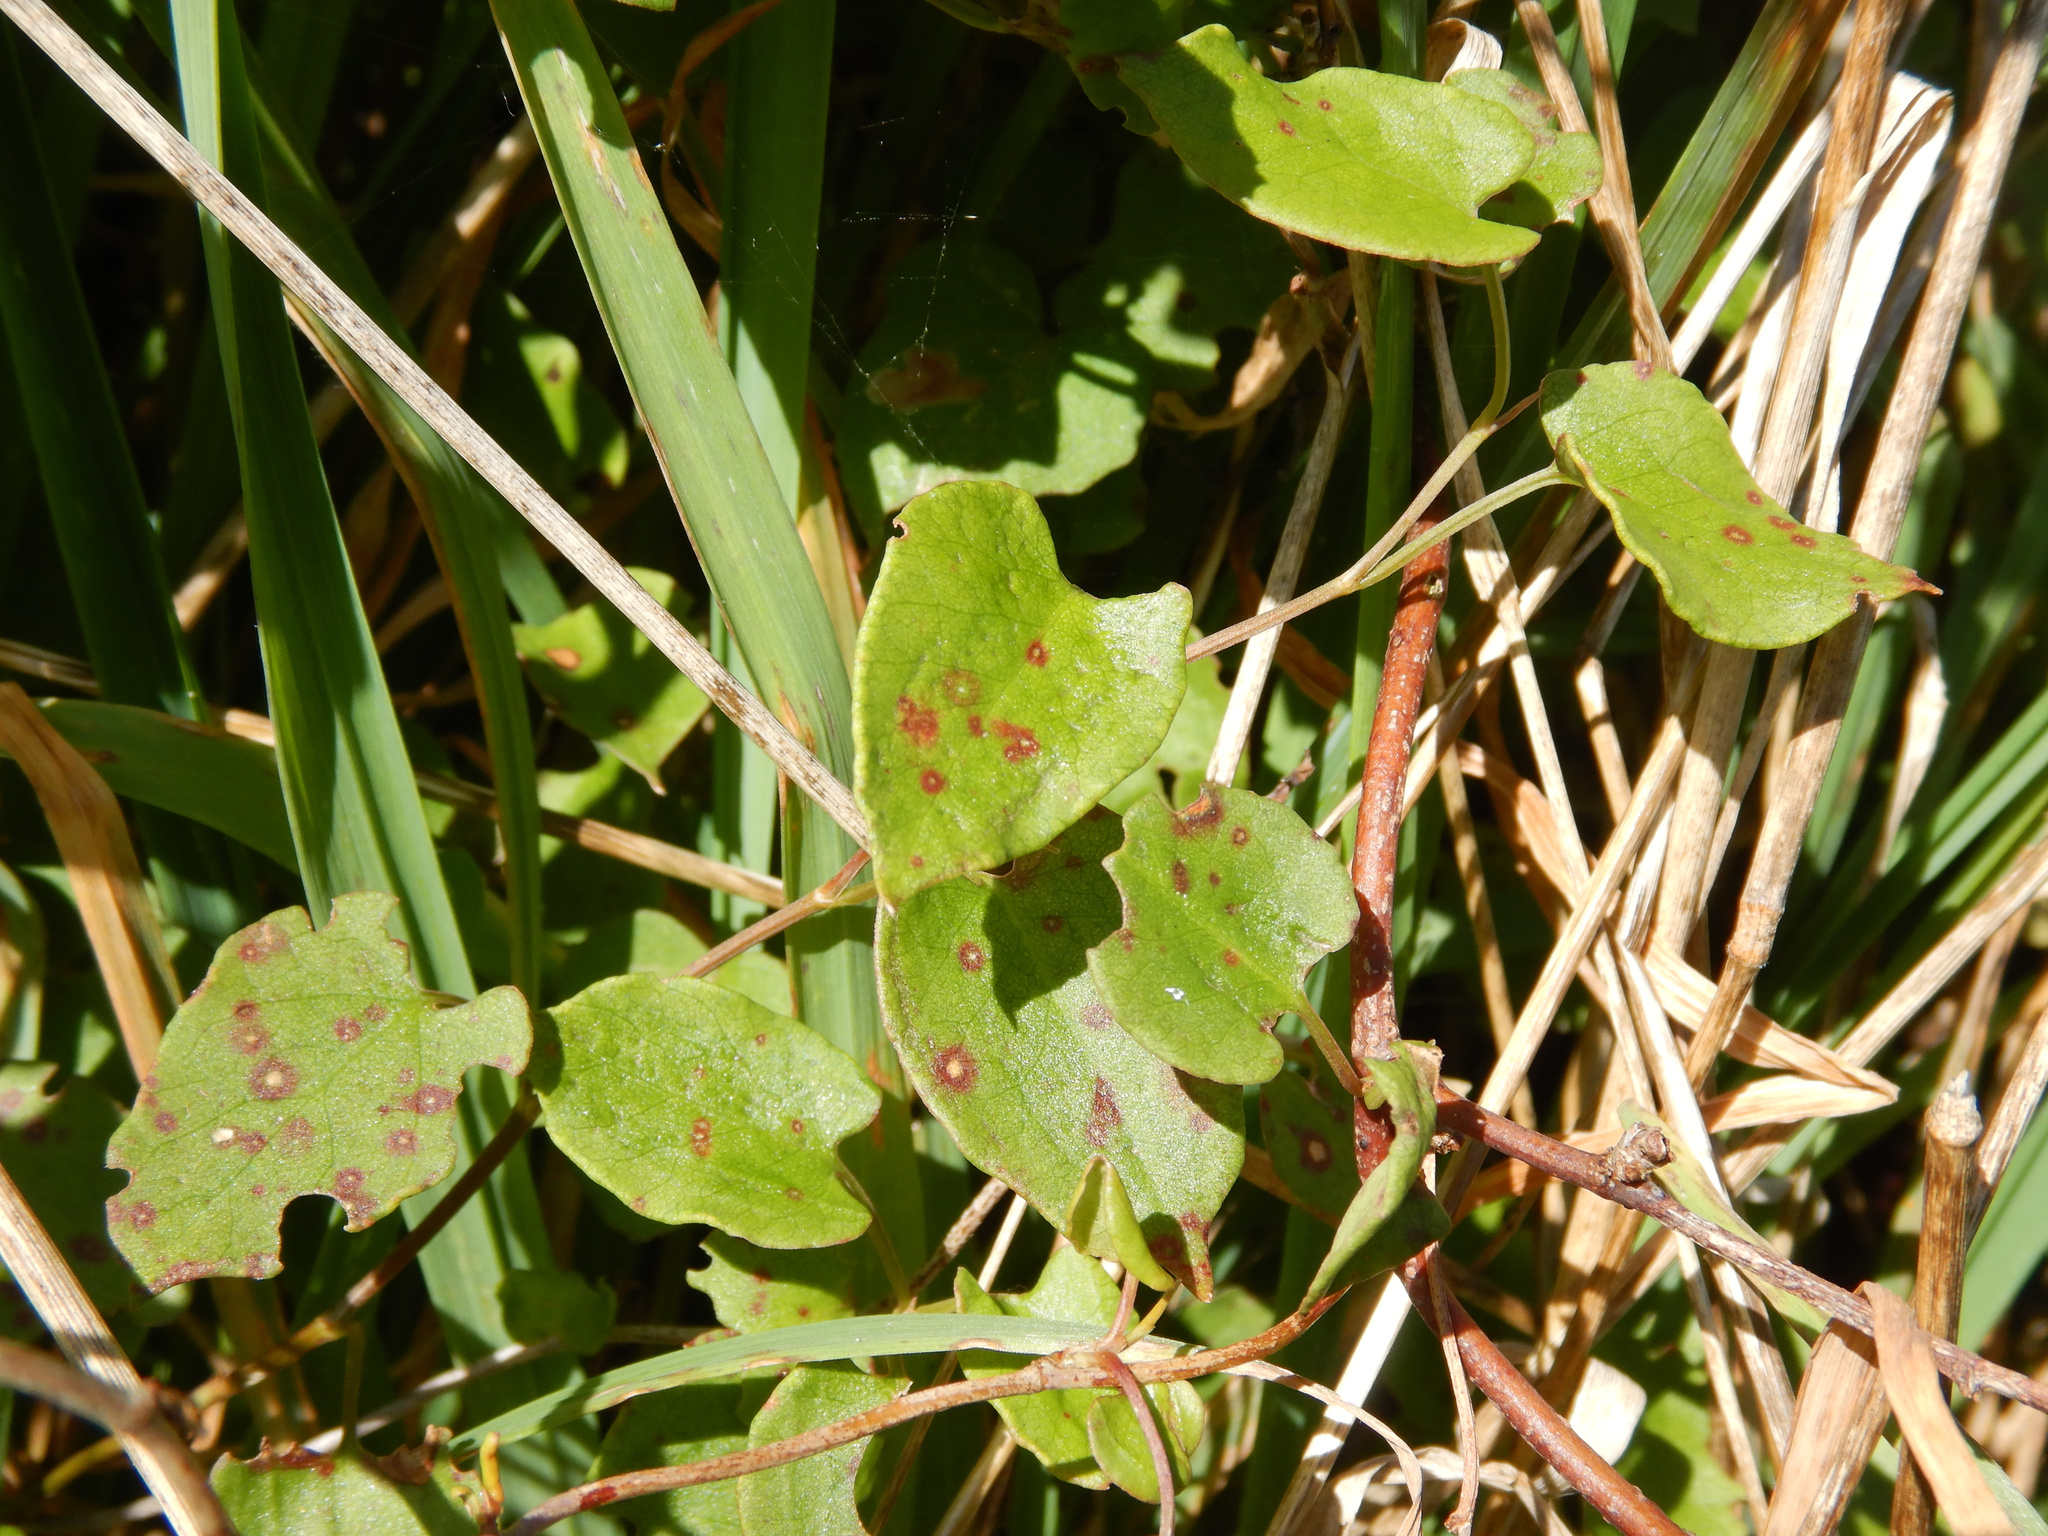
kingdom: Plantae
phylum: Tracheophyta
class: Magnoliopsida
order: Caryophyllales
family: Polygonaceae
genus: Muehlenbeckia
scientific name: Muehlenbeckia australis
